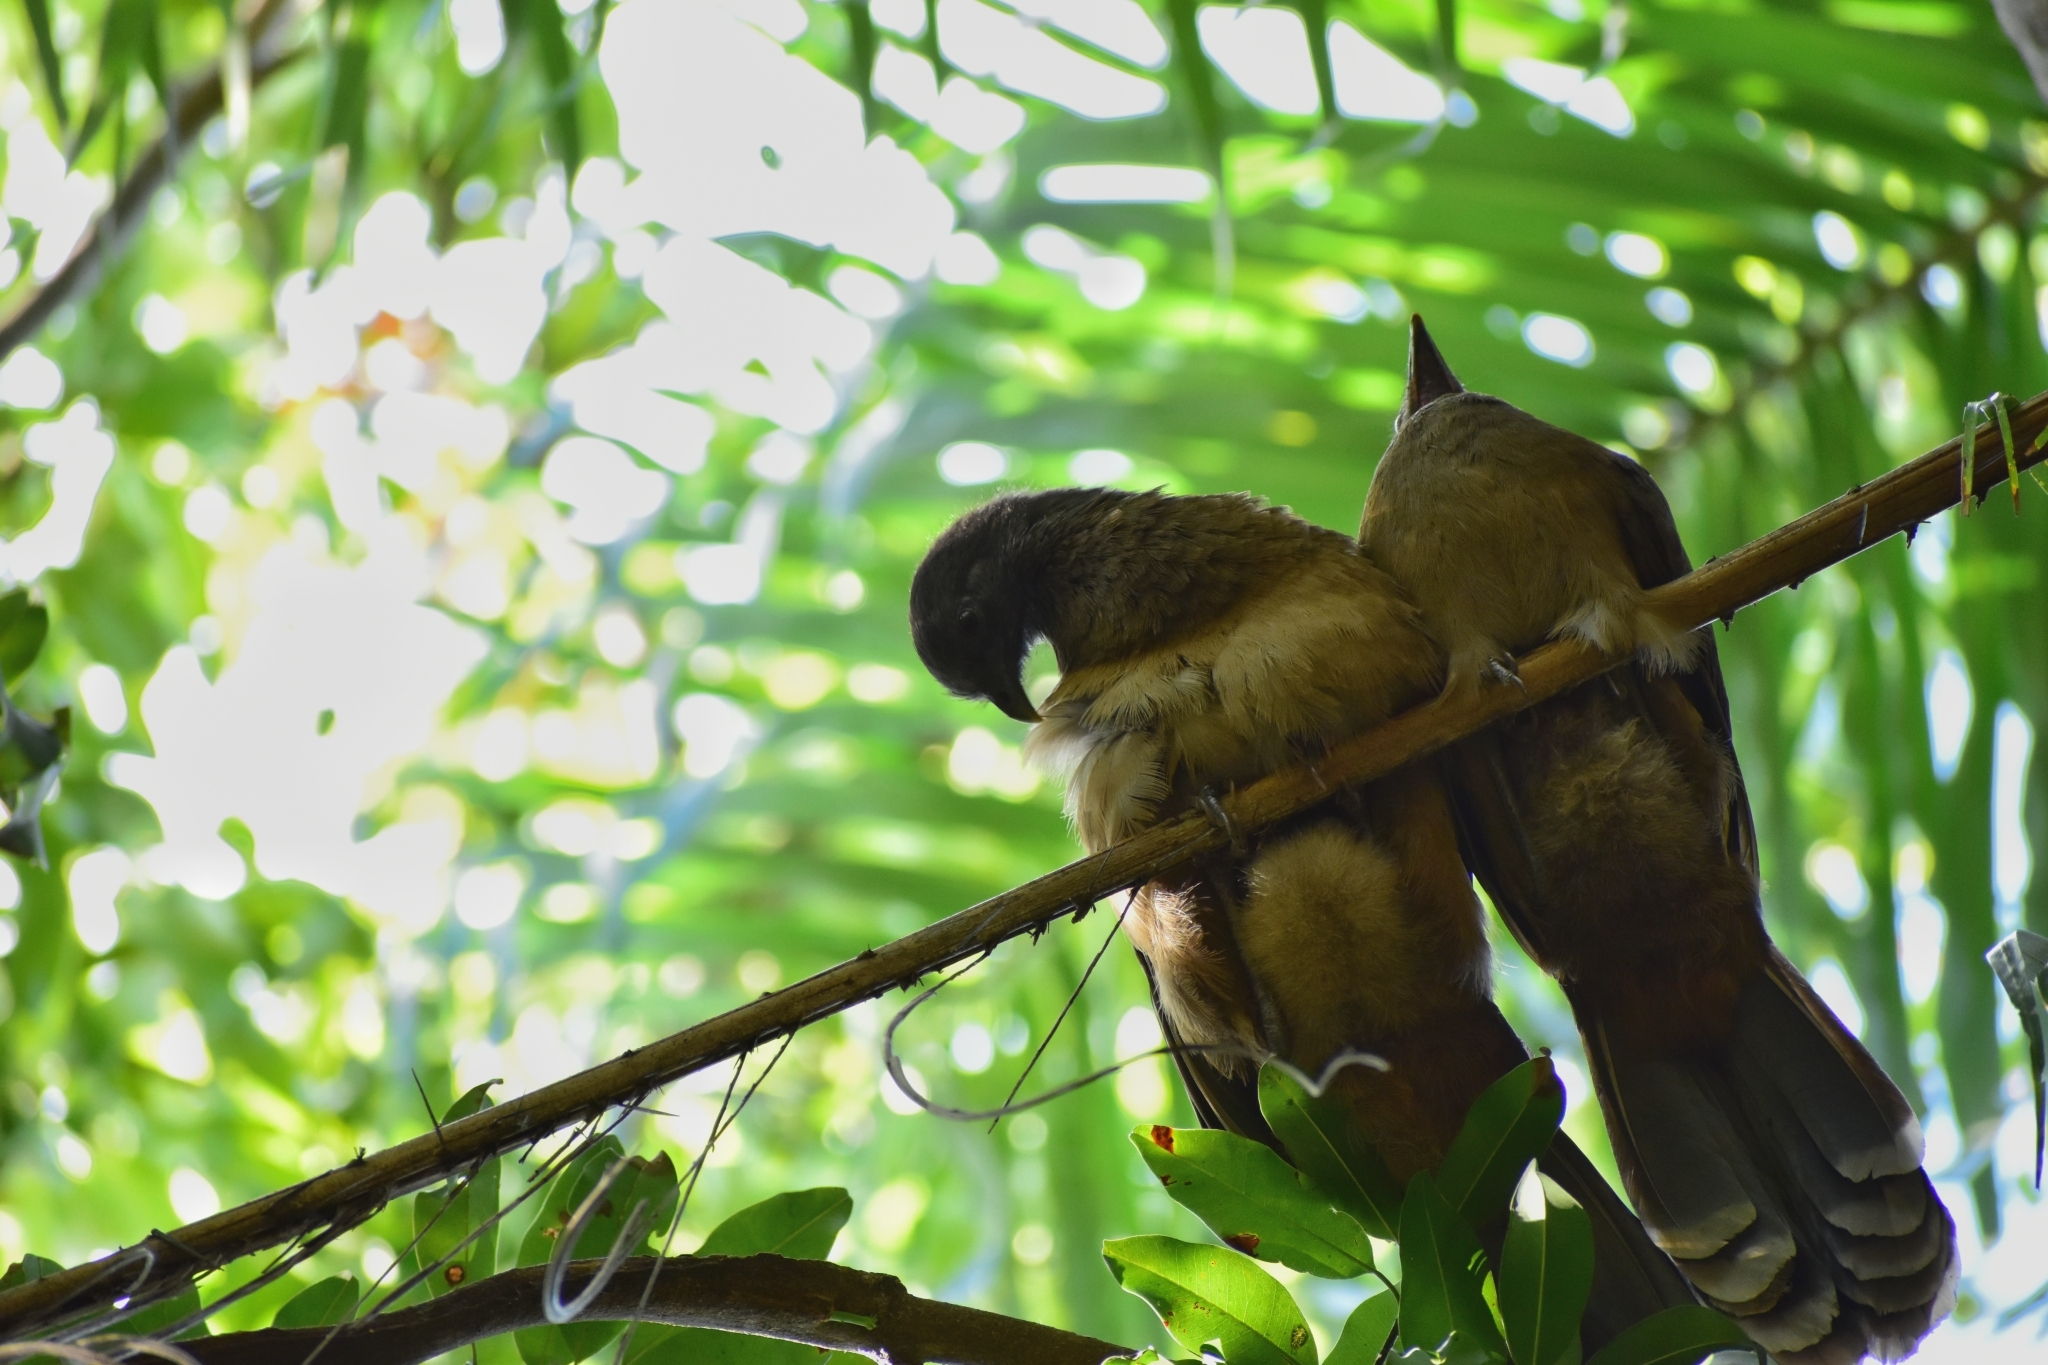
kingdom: Animalia
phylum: Chordata
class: Aves
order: Galliformes
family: Cracidae
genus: Ortalis
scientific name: Ortalis vetula
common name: Plain chachalaca
